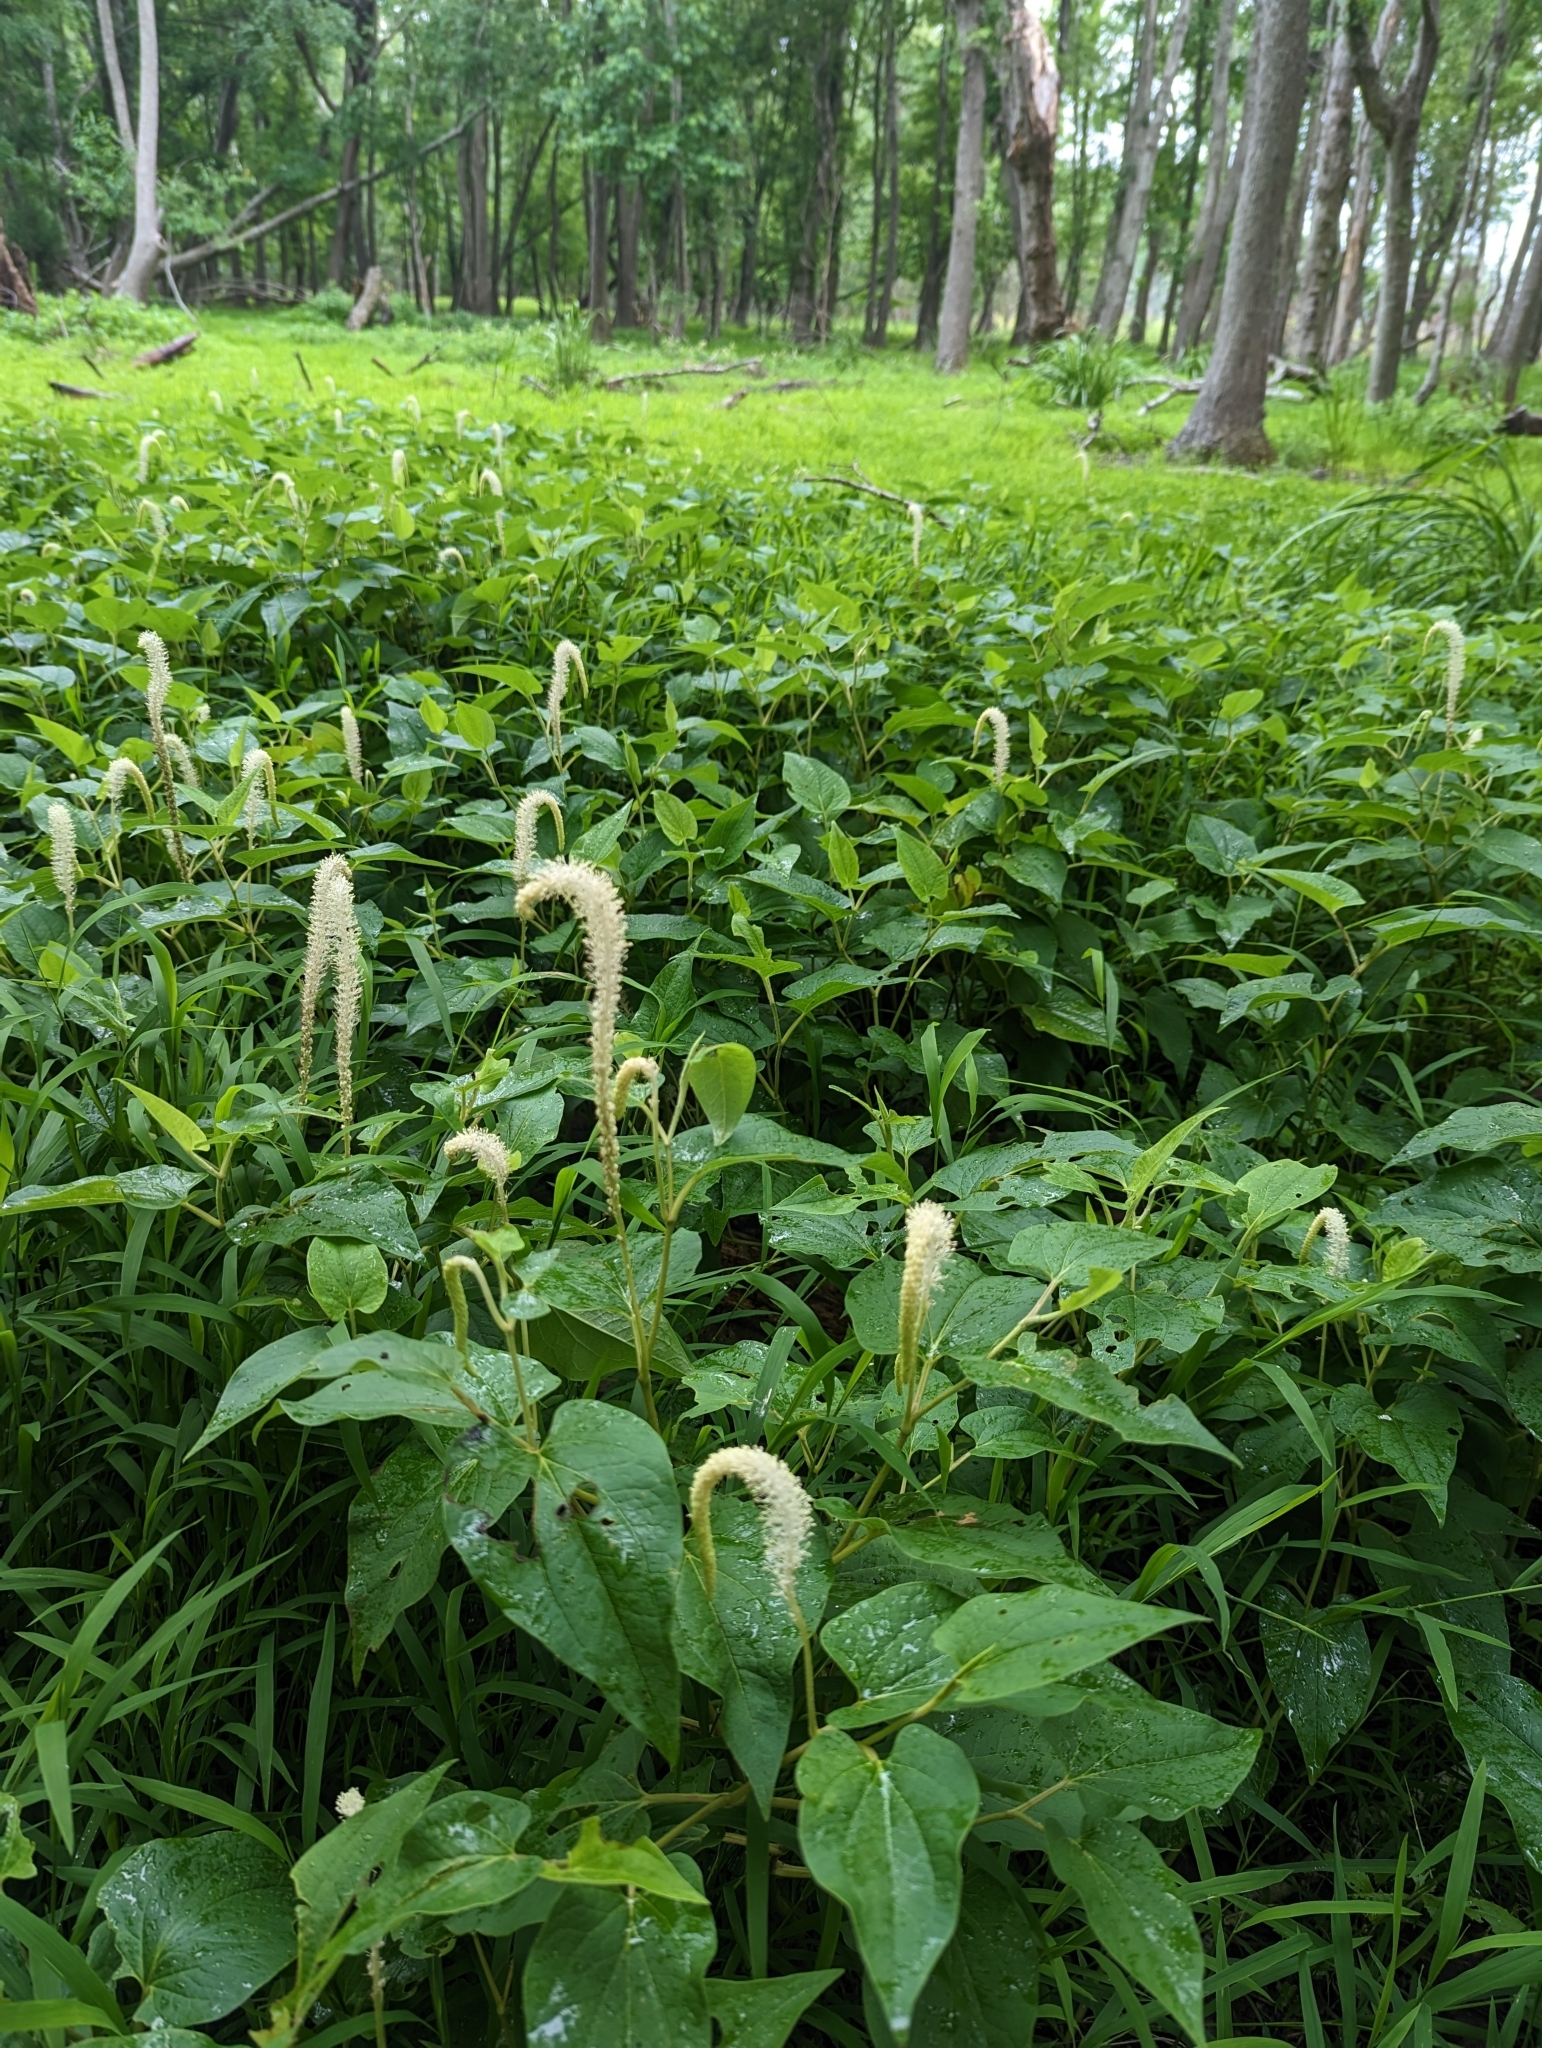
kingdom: Plantae
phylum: Tracheophyta
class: Magnoliopsida
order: Piperales
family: Saururaceae
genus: Saururus
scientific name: Saururus cernuus
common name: Lizard's-tail
